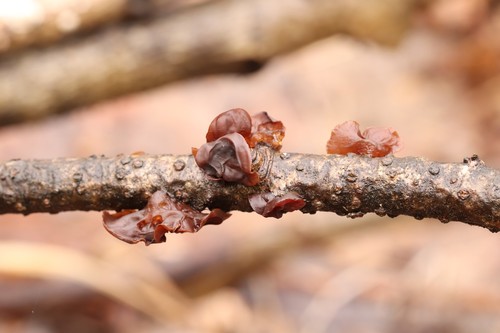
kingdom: Fungi
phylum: Basidiomycota
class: Agaricomycetes
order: Auriculariales
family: Auriculariaceae
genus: Exidia
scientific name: Exidia
